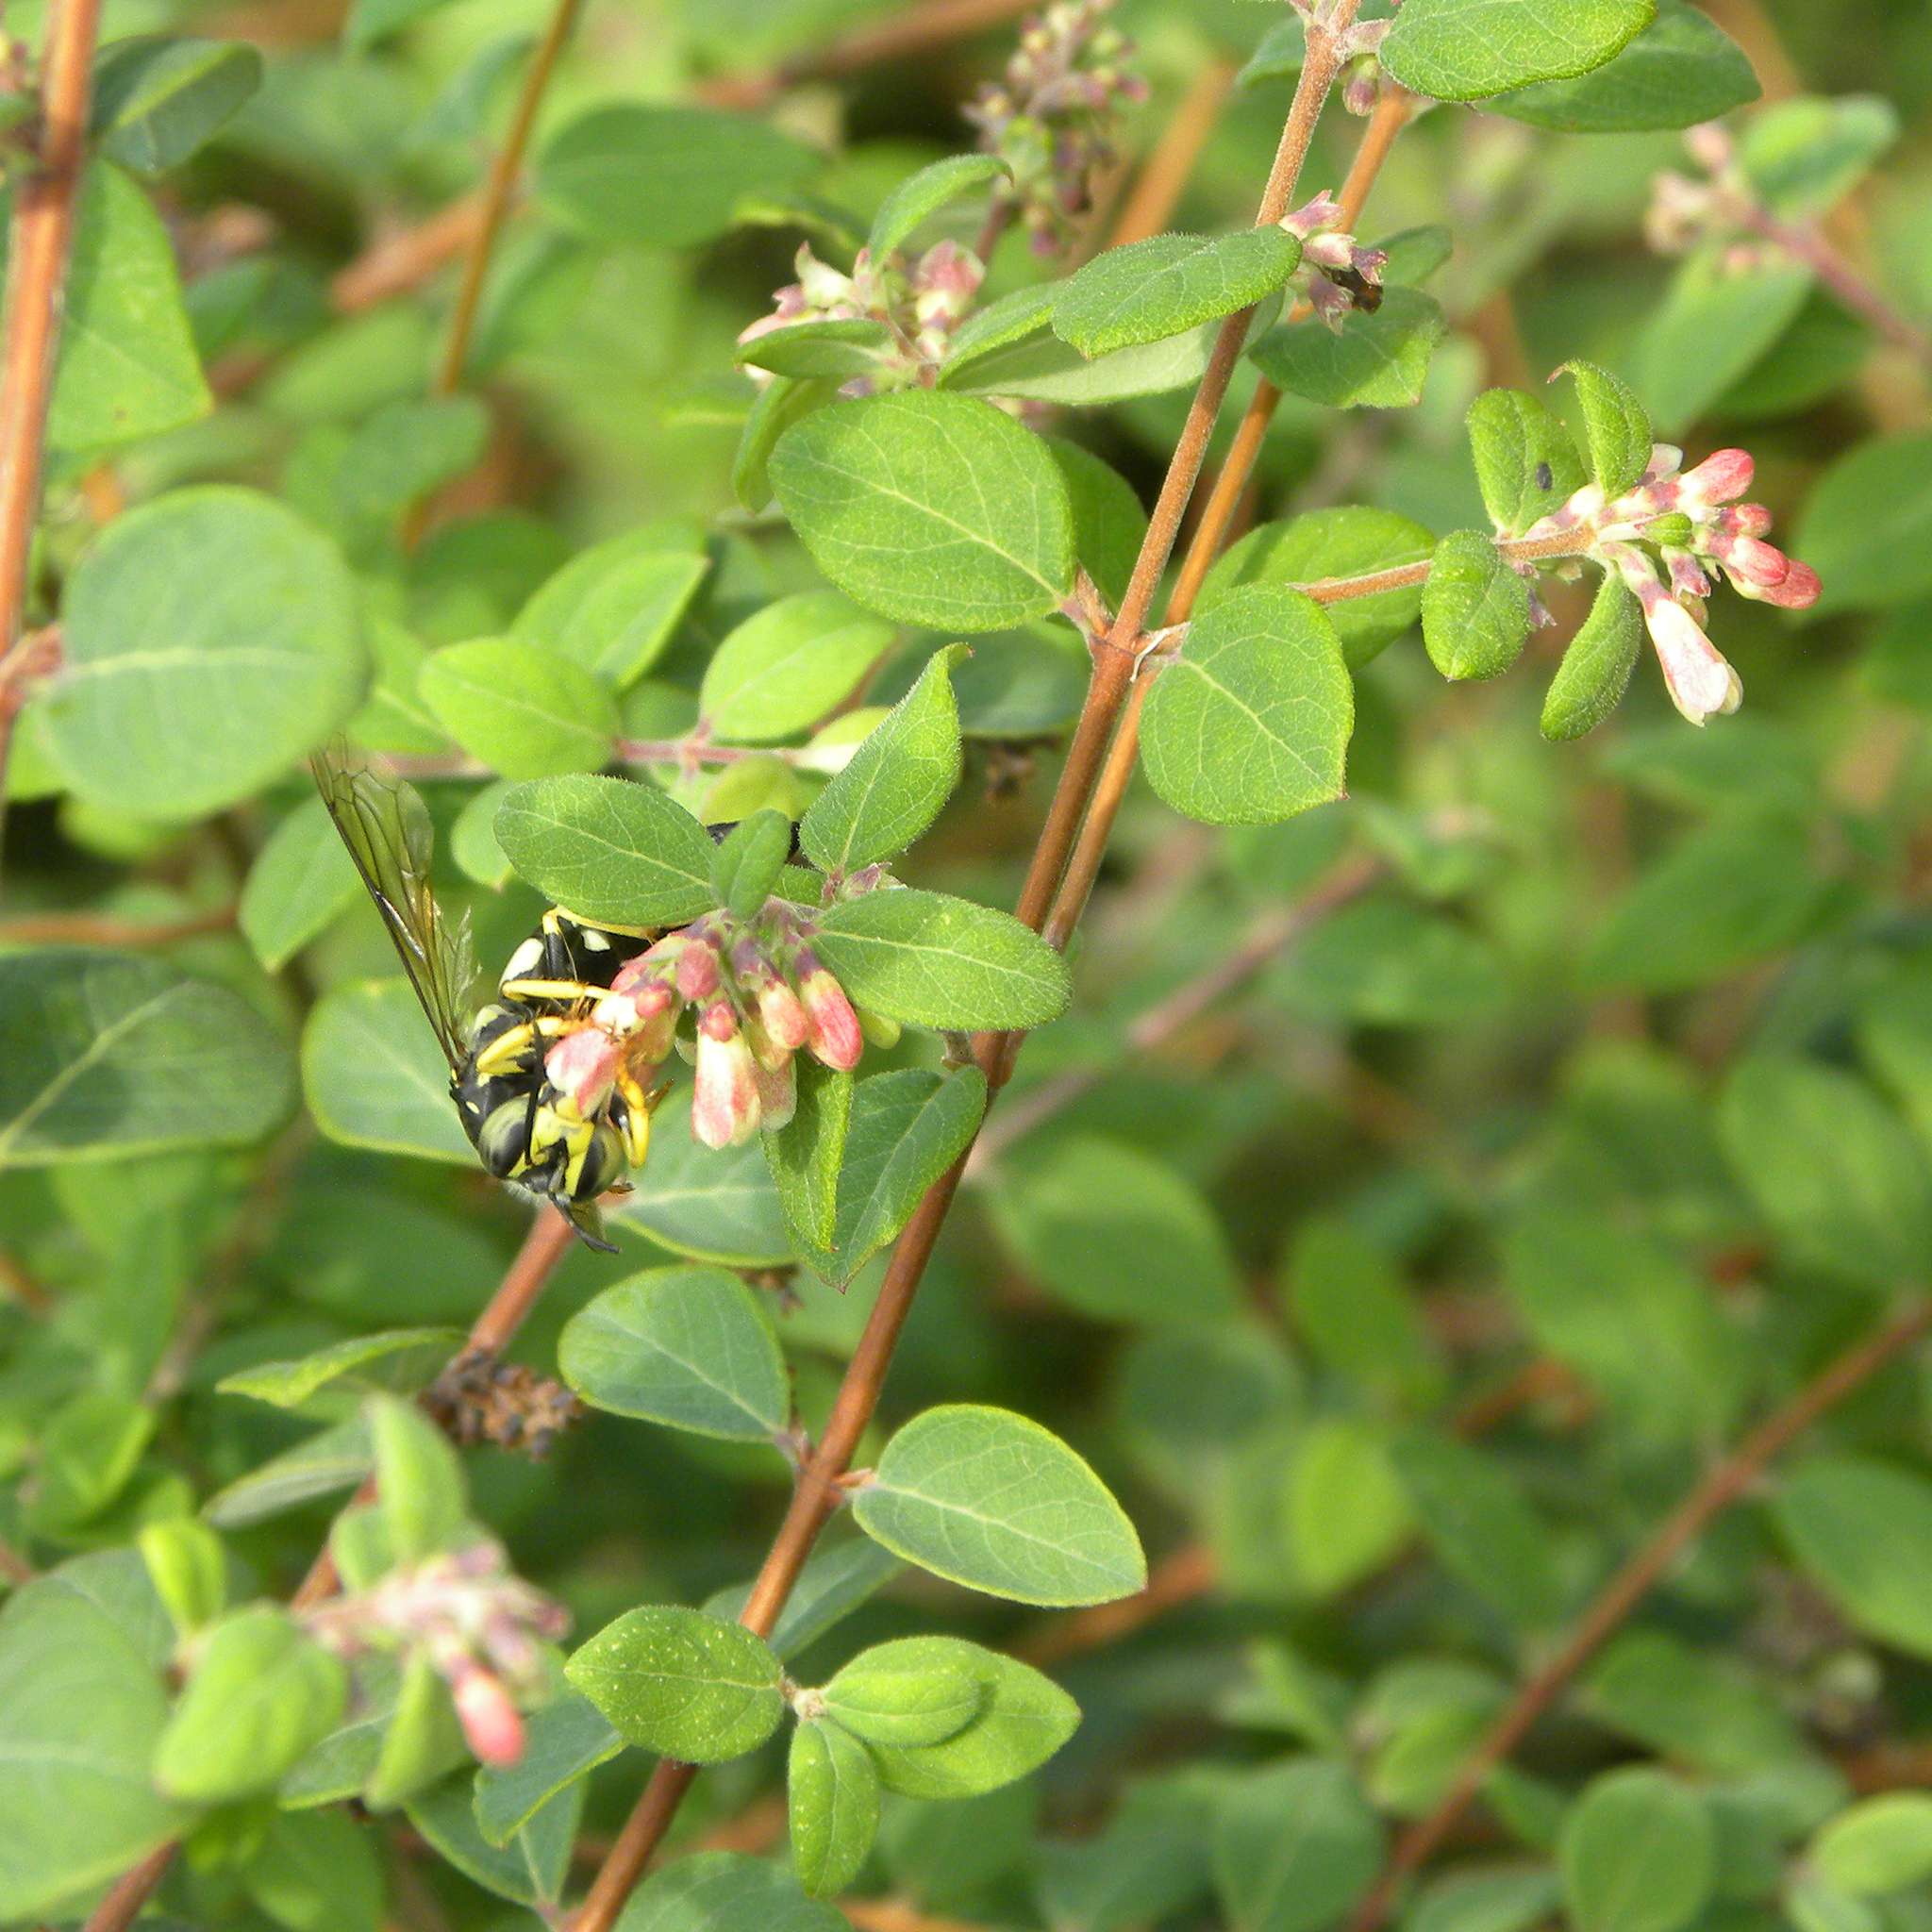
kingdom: Animalia
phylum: Arthropoda
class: Insecta
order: Hymenoptera
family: Crabronidae
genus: Bicyrtes
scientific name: Bicyrtes quadrifasciatus
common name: Four-banded stink bug hunter wasp
